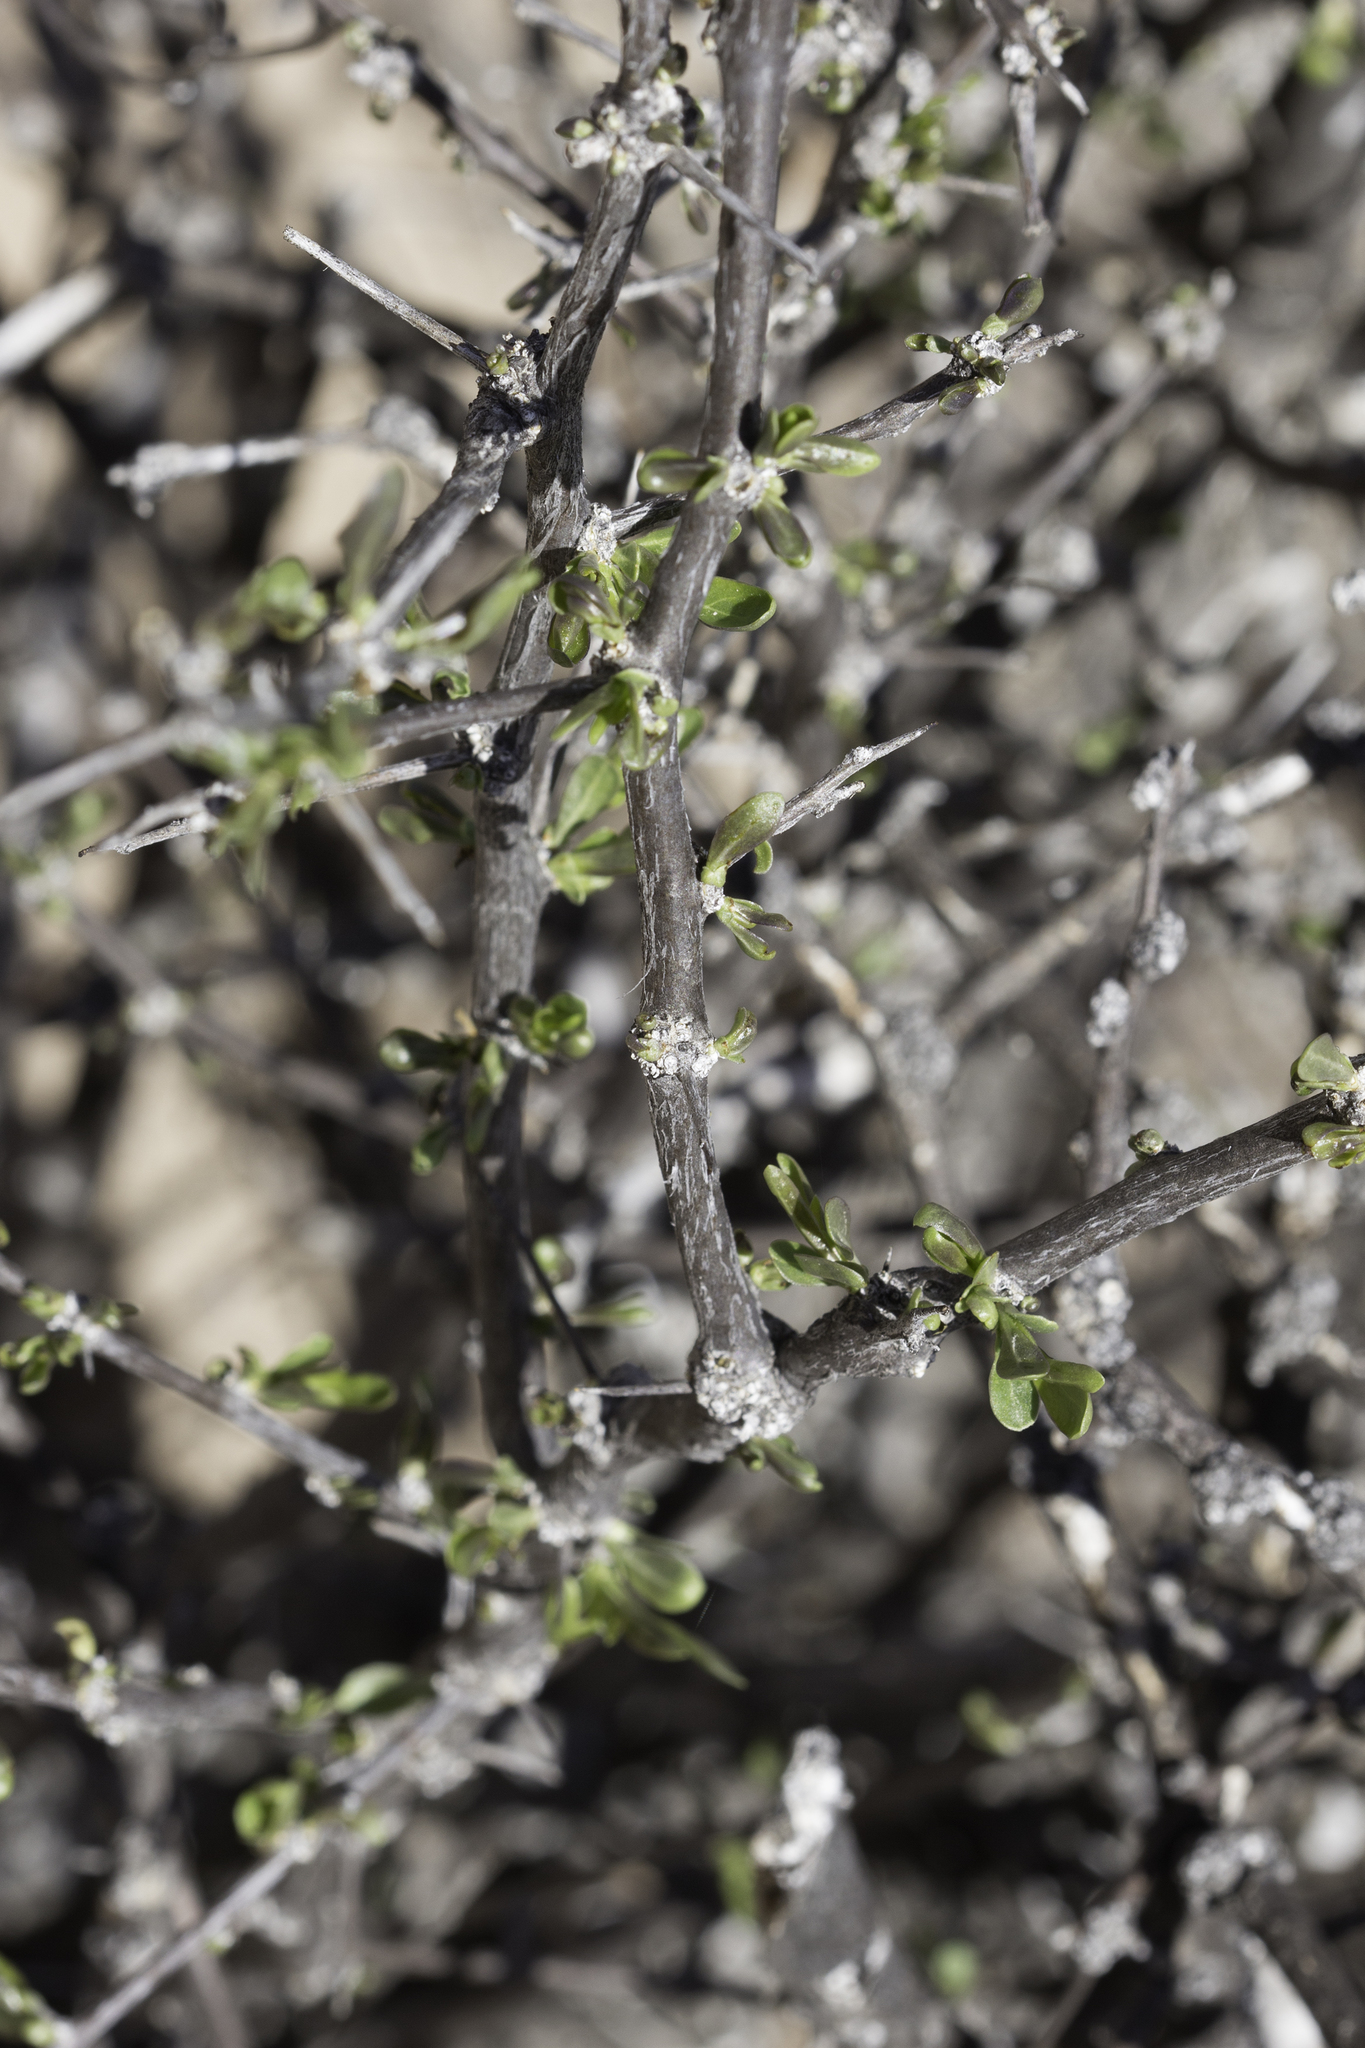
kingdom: Plantae
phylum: Tracheophyta
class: Magnoliopsida
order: Solanales
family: Solanaceae
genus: Lycium
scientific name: Lycium pallidum
